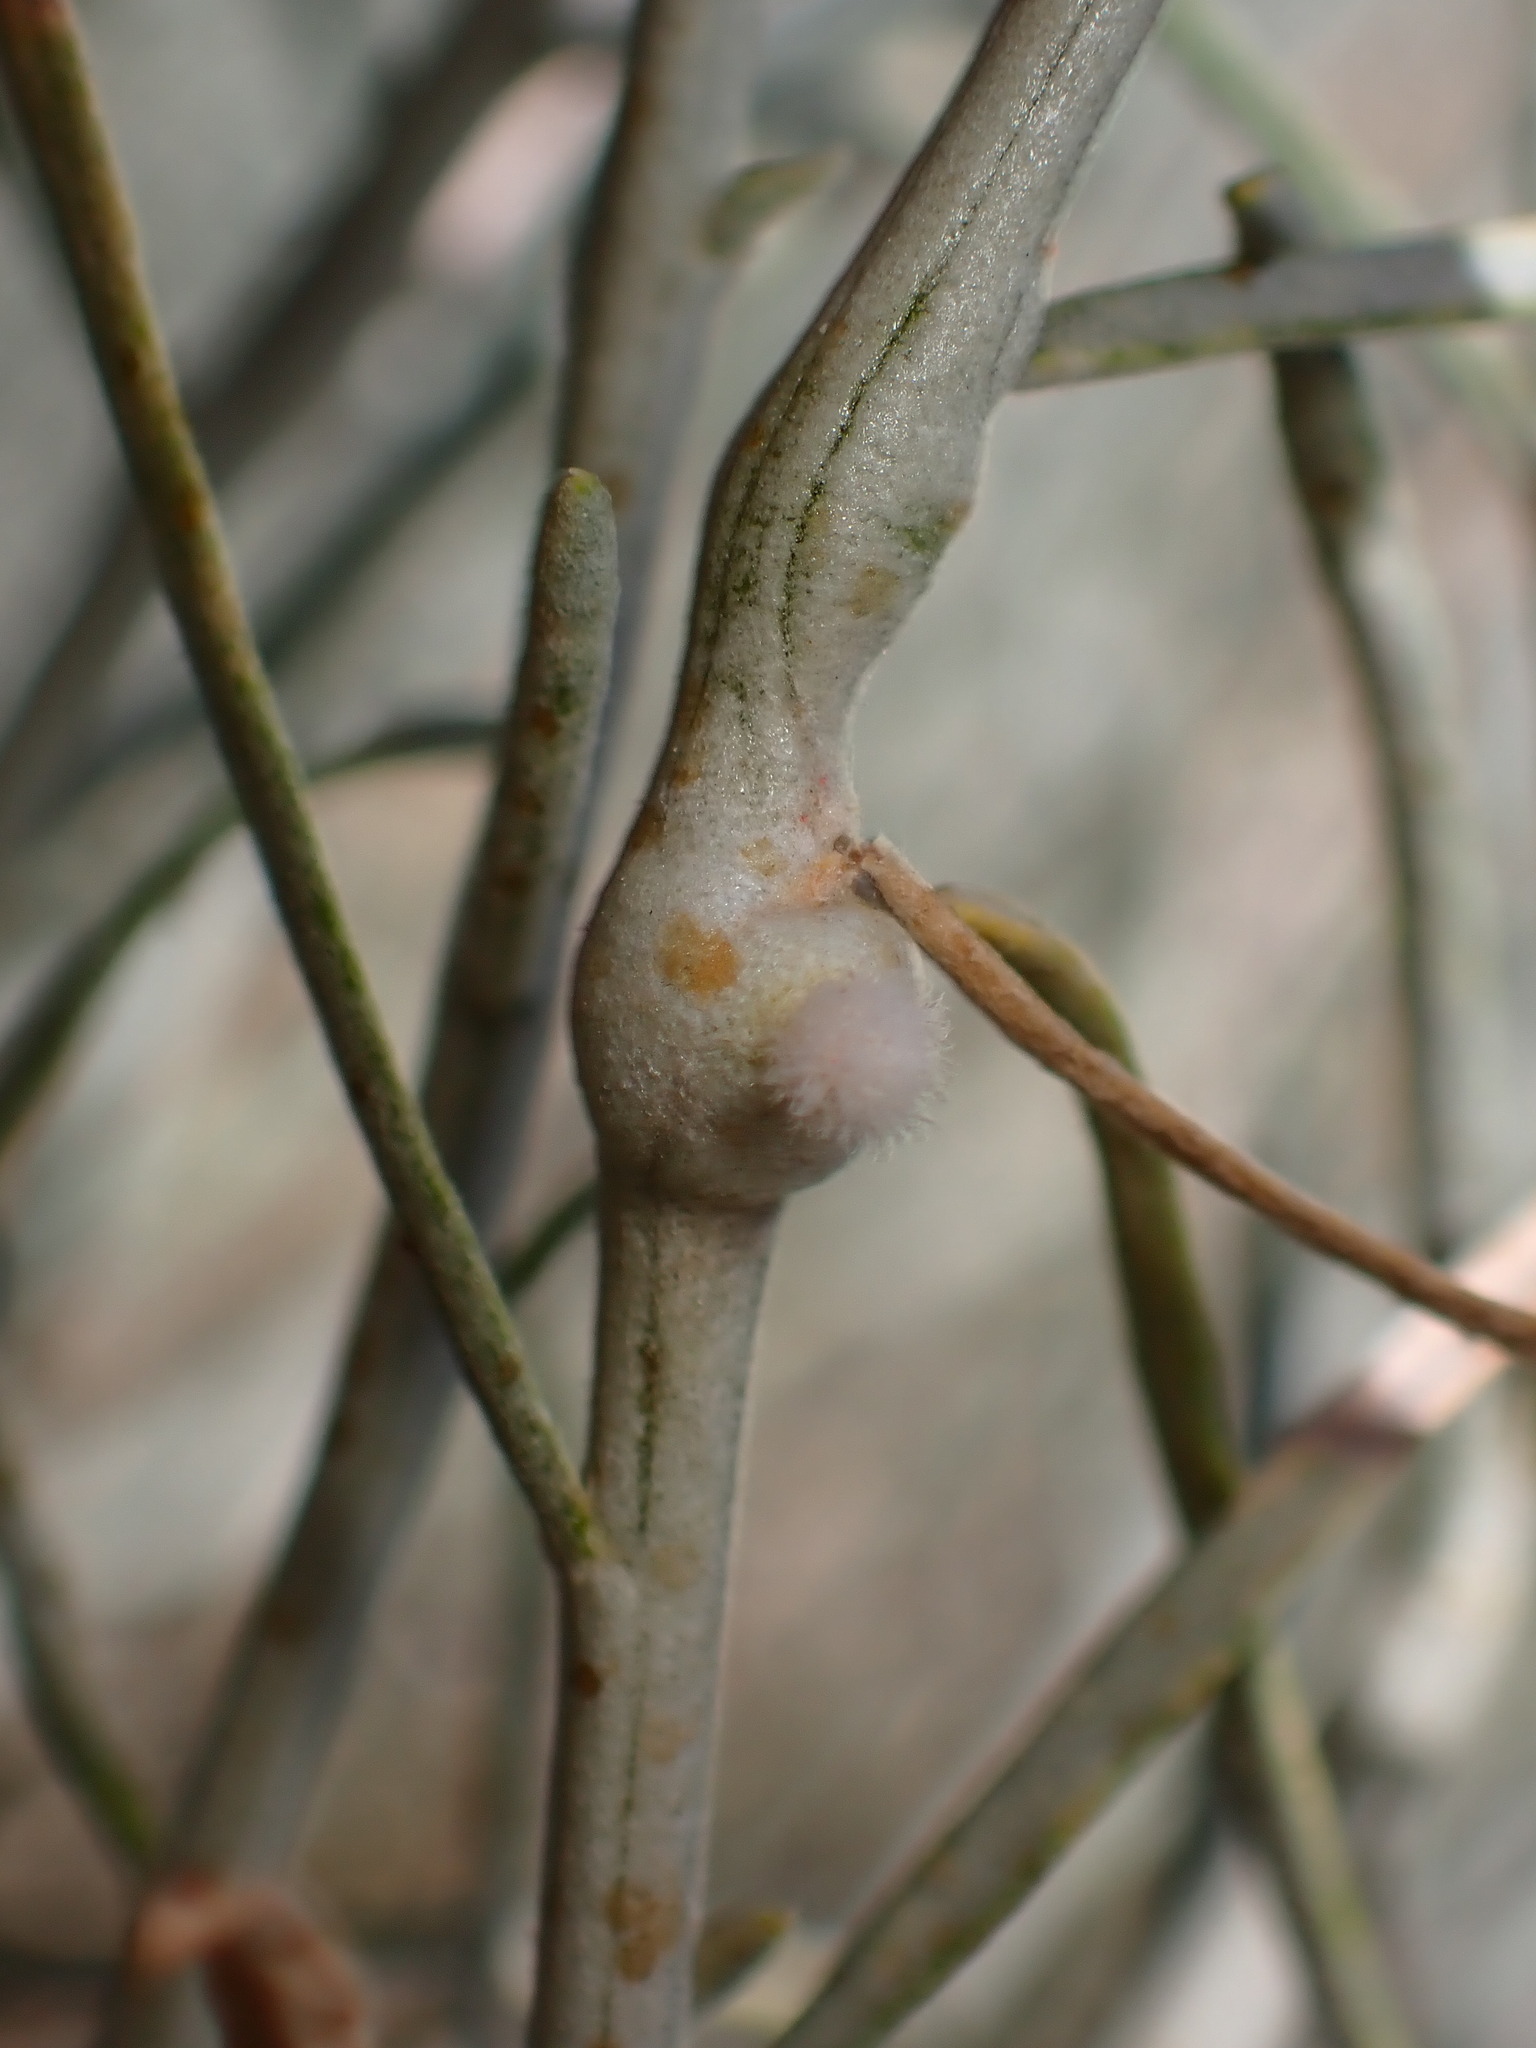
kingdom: Animalia
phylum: Arthropoda
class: Insecta
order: Diptera
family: Cecidomyiidae
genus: Rhopalomyia
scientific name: Rhopalomyia chrysothamni
